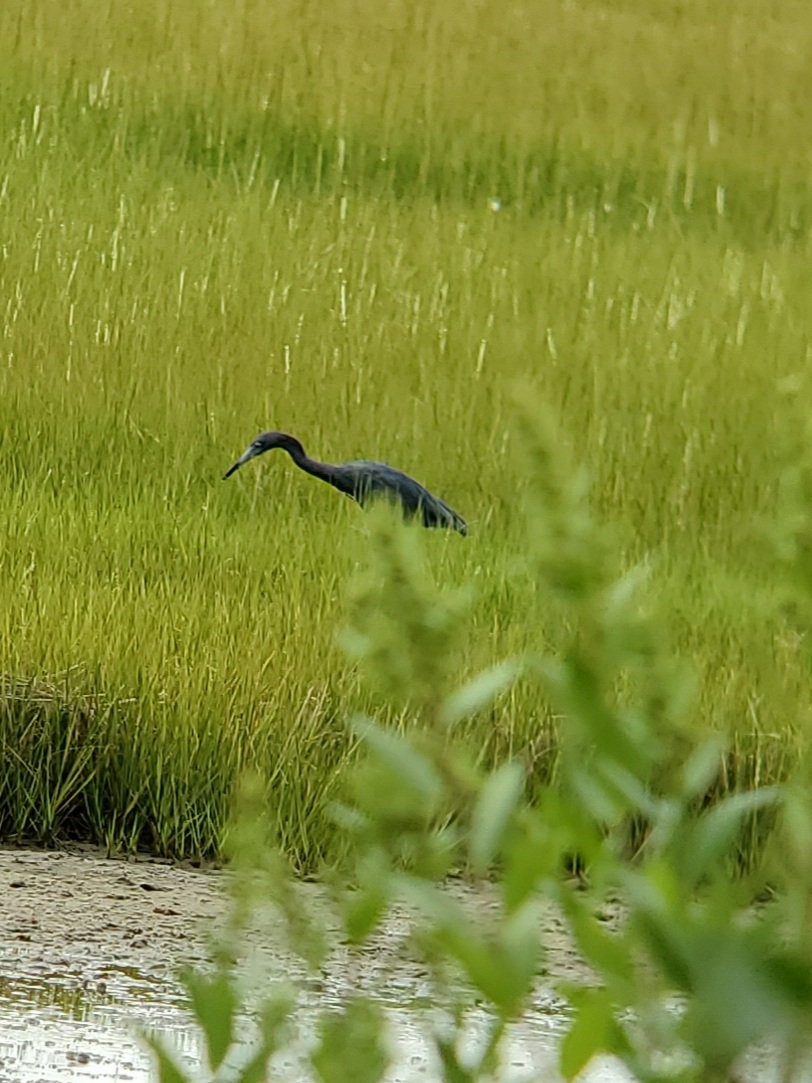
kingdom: Animalia
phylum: Chordata
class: Aves
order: Pelecaniformes
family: Ardeidae
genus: Egretta
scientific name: Egretta caerulea
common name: Little blue heron
